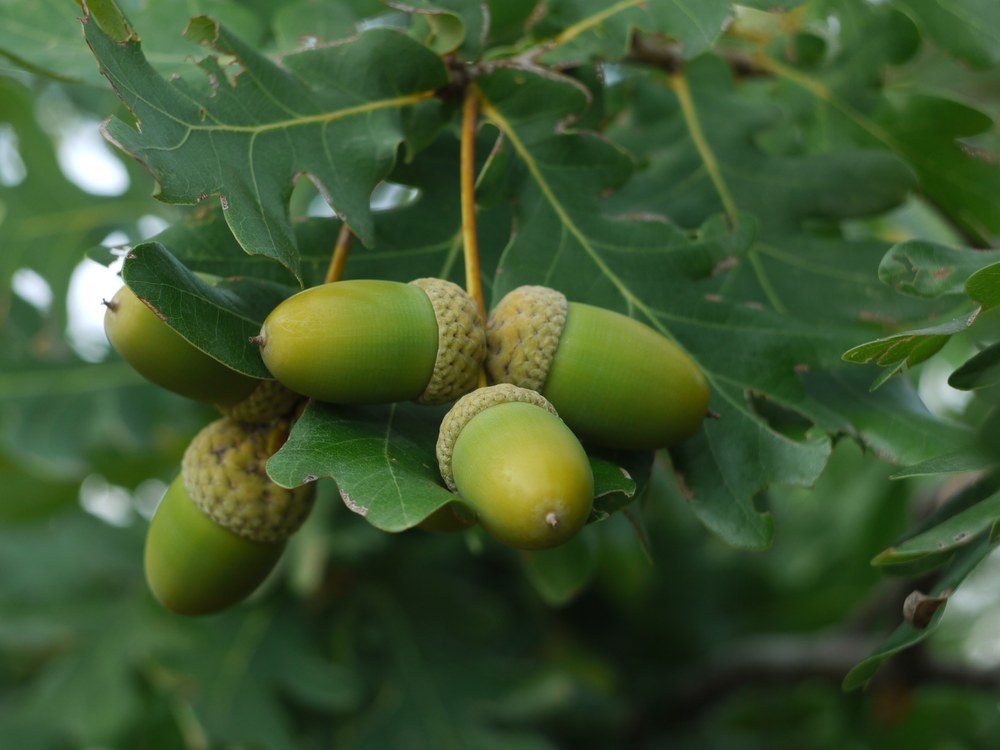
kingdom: Plantae
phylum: Tracheophyta
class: Magnoliopsida
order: Fagales
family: Fagaceae
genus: Quercus
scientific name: Quercus robur
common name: Pedunculate oak
